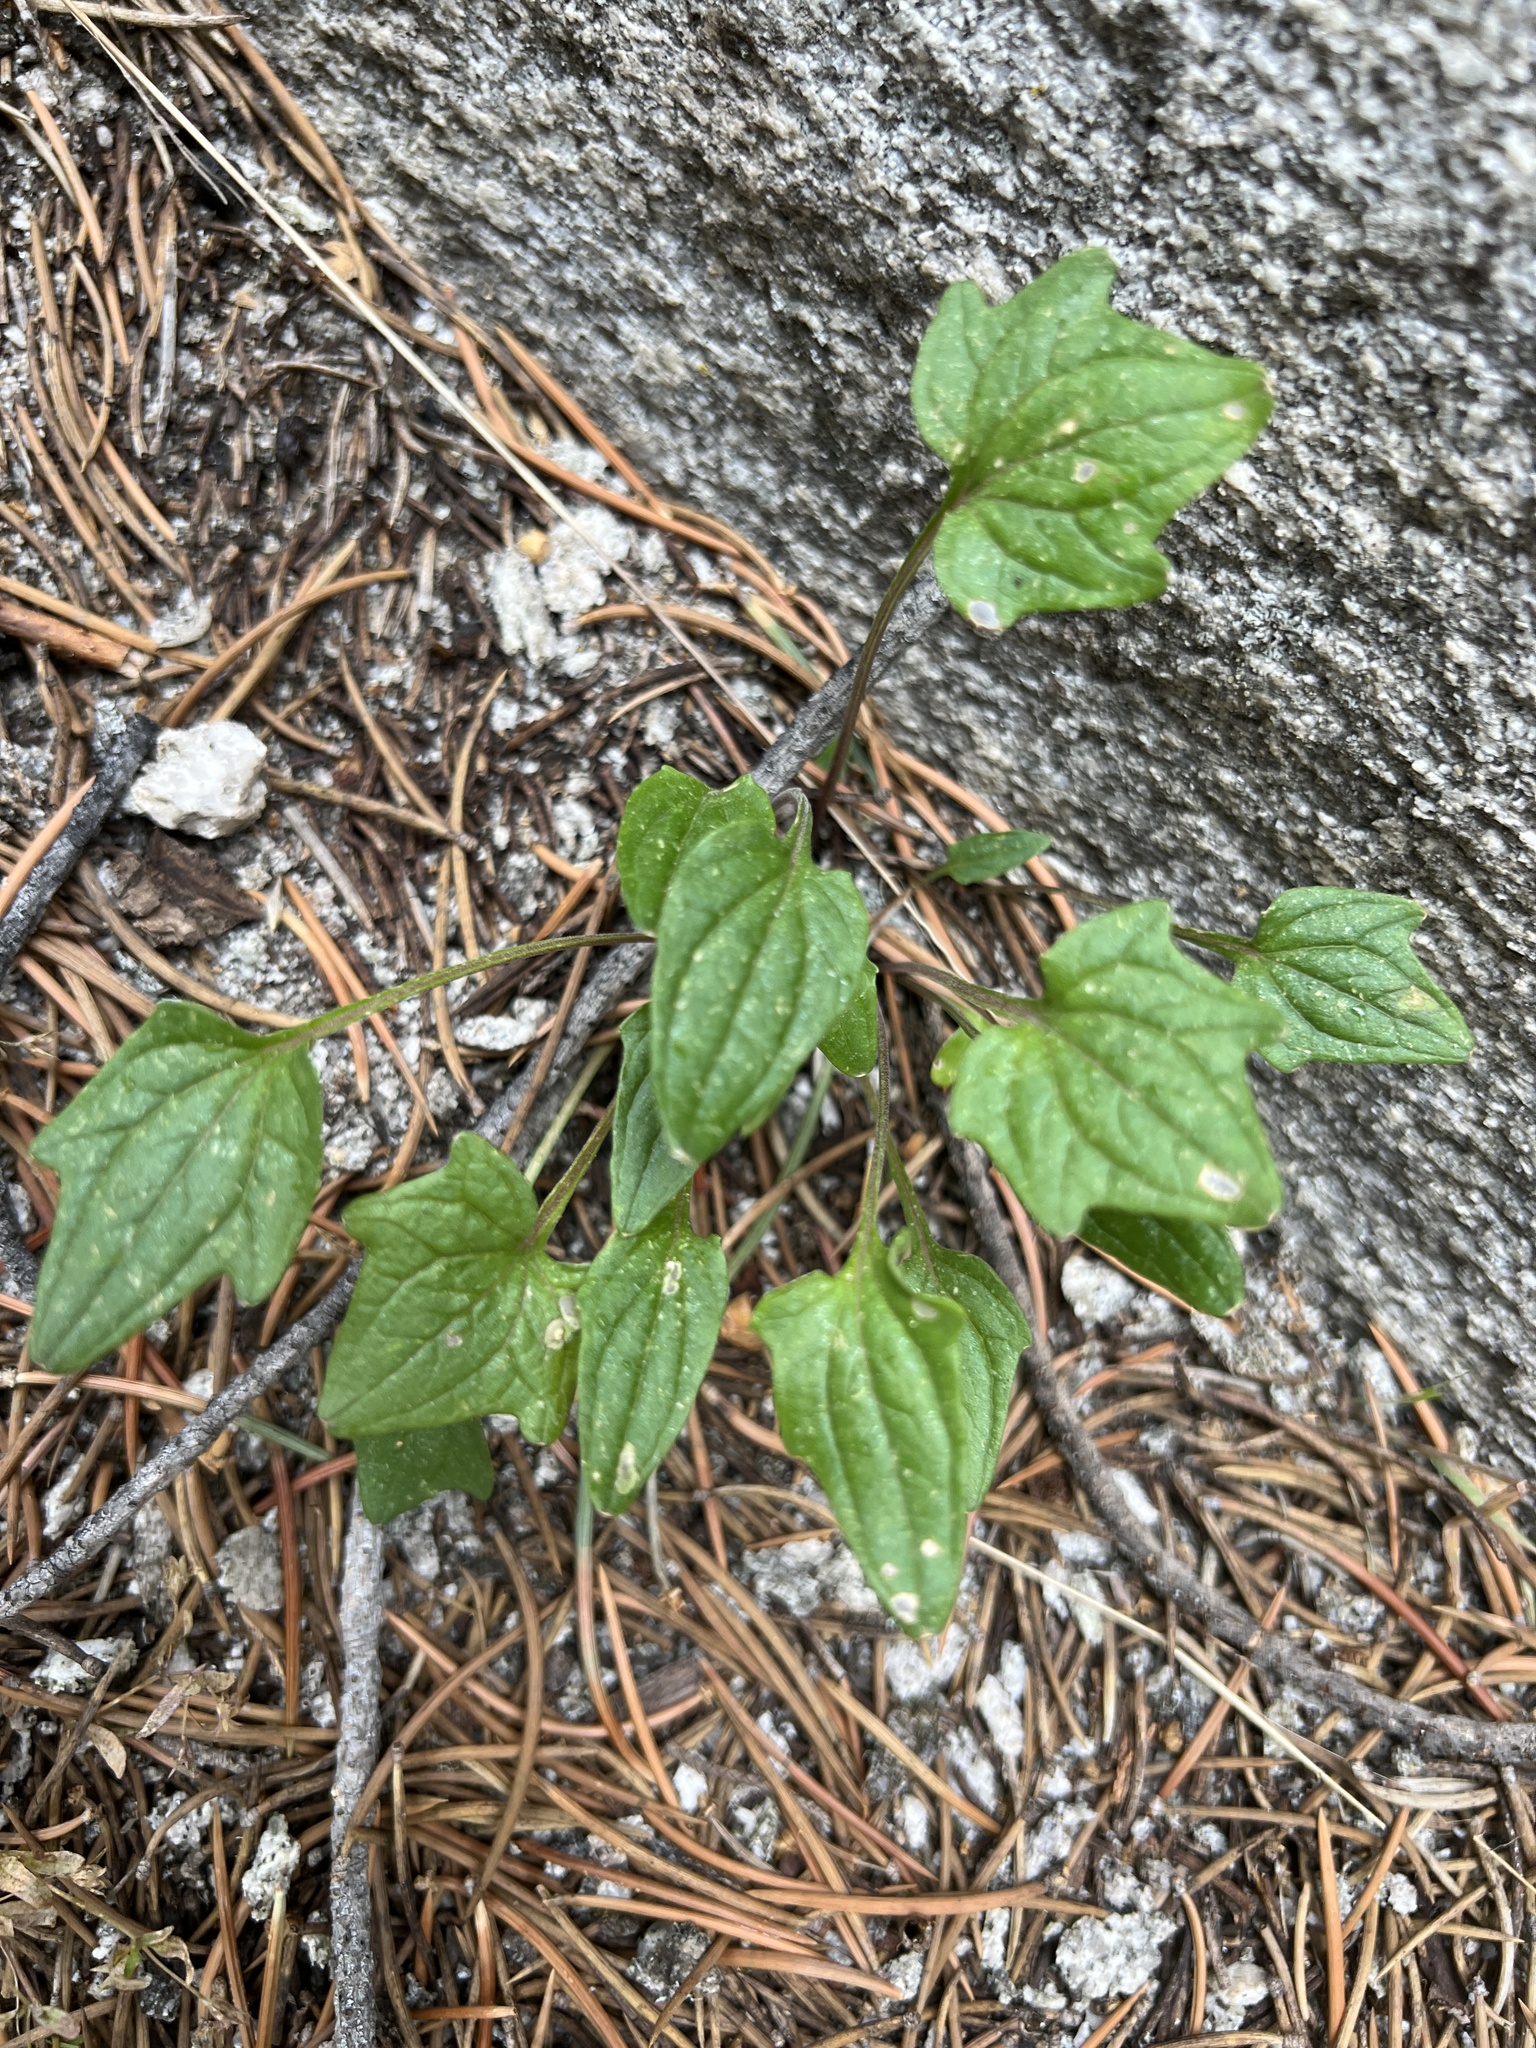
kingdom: Plantae
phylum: Tracheophyta
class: Magnoliopsida
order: Malpighiales
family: Violaceae
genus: Viola
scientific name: Viola purpurea
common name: Pine violet
